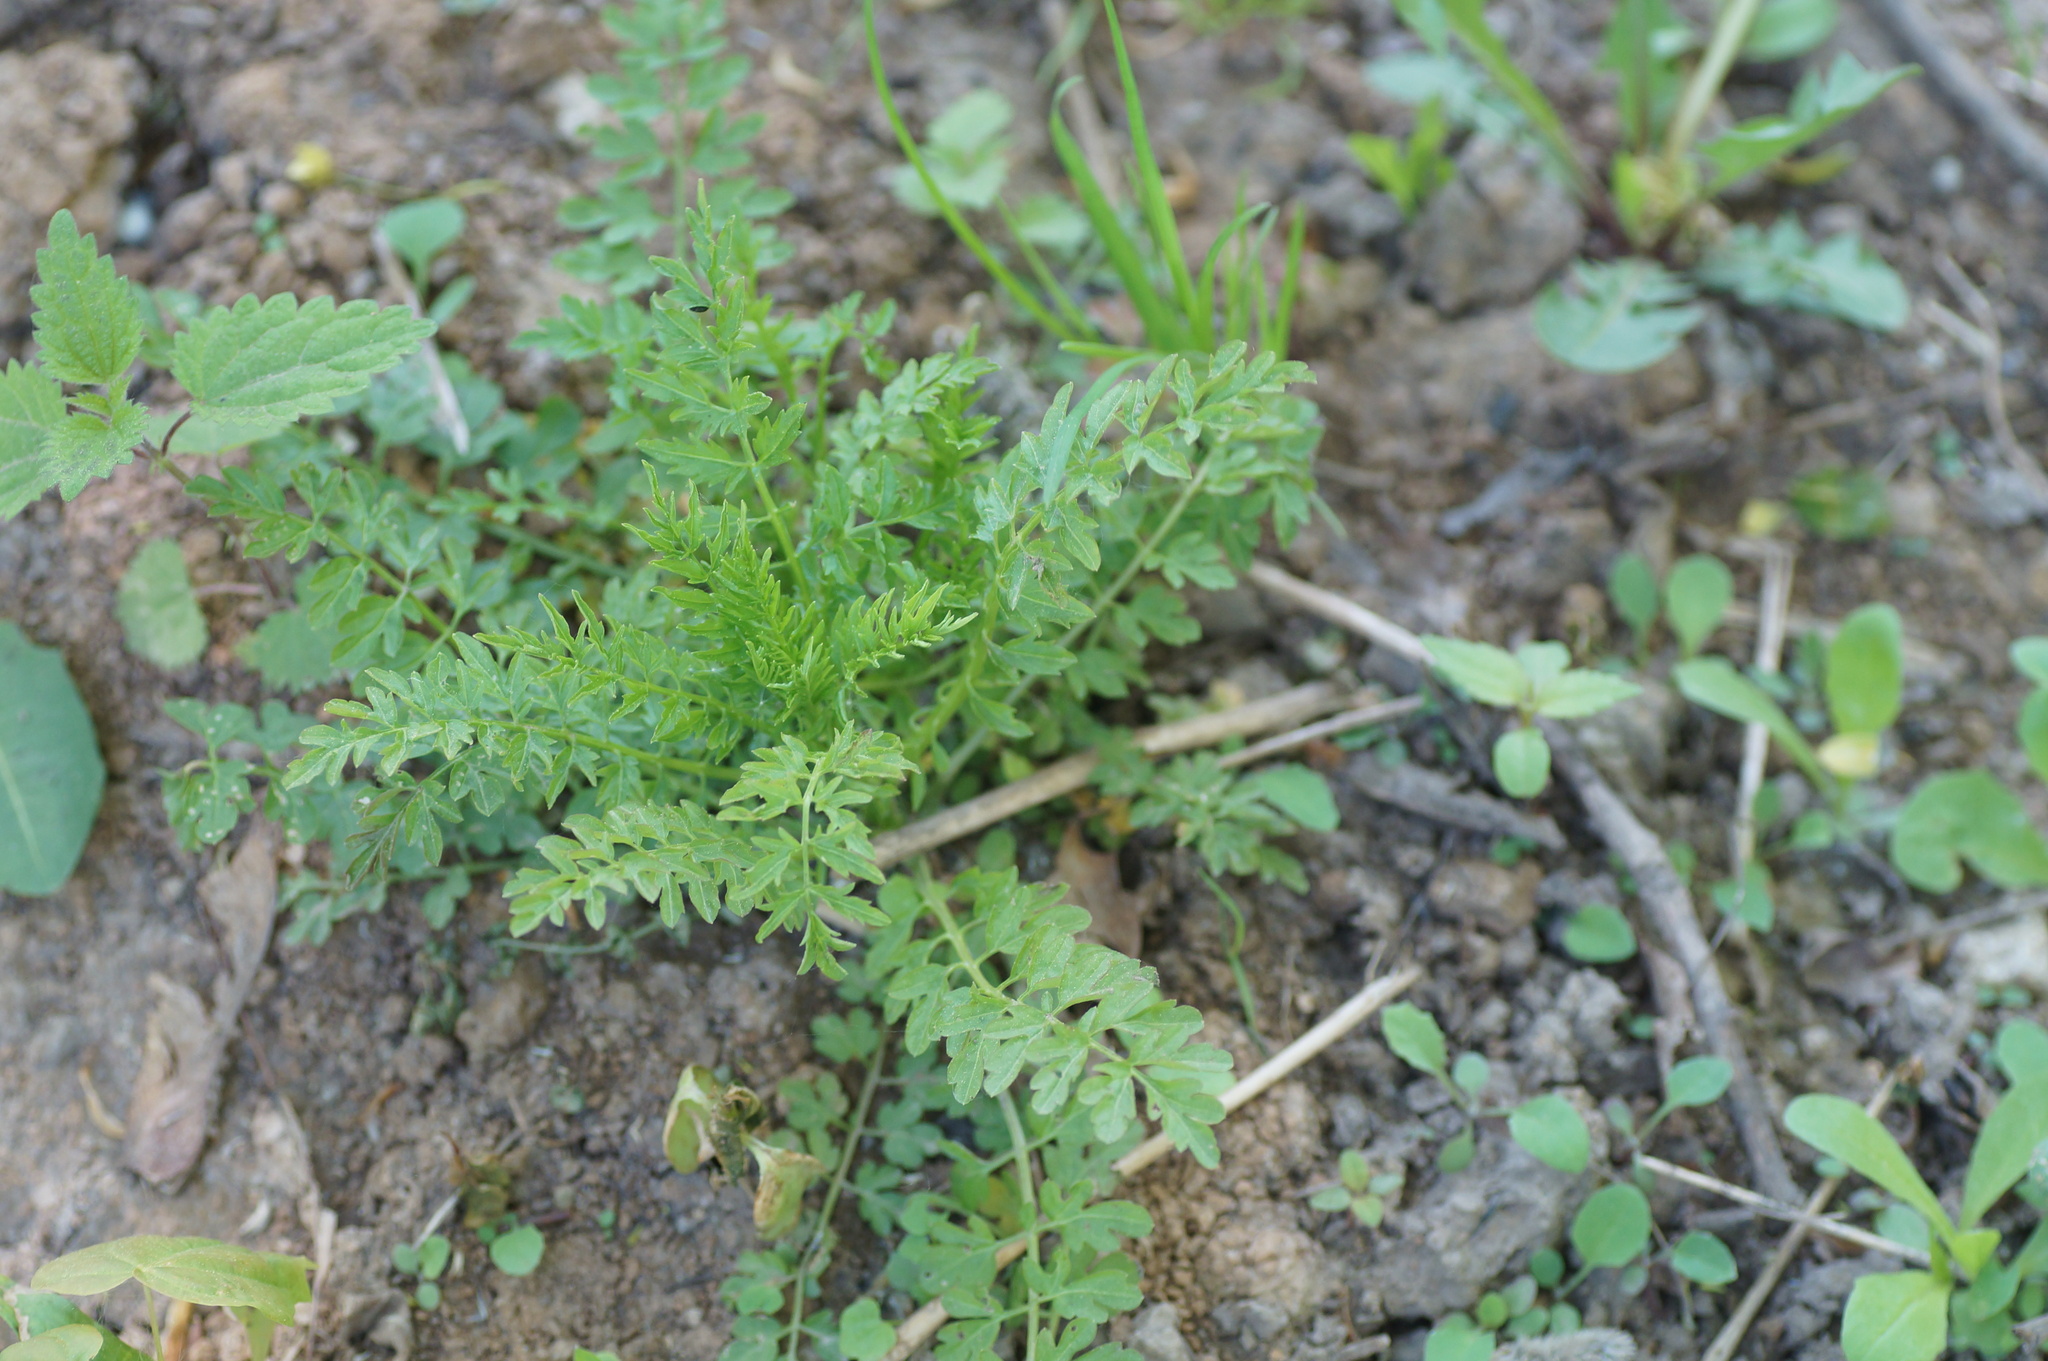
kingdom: Plantae
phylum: Tracheophyta
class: Magnoliopsida
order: Brassicales
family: Brassicaceae
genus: Cardamine
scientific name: Cardamine impatiens
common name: Narrow-leaved bitter-cress
